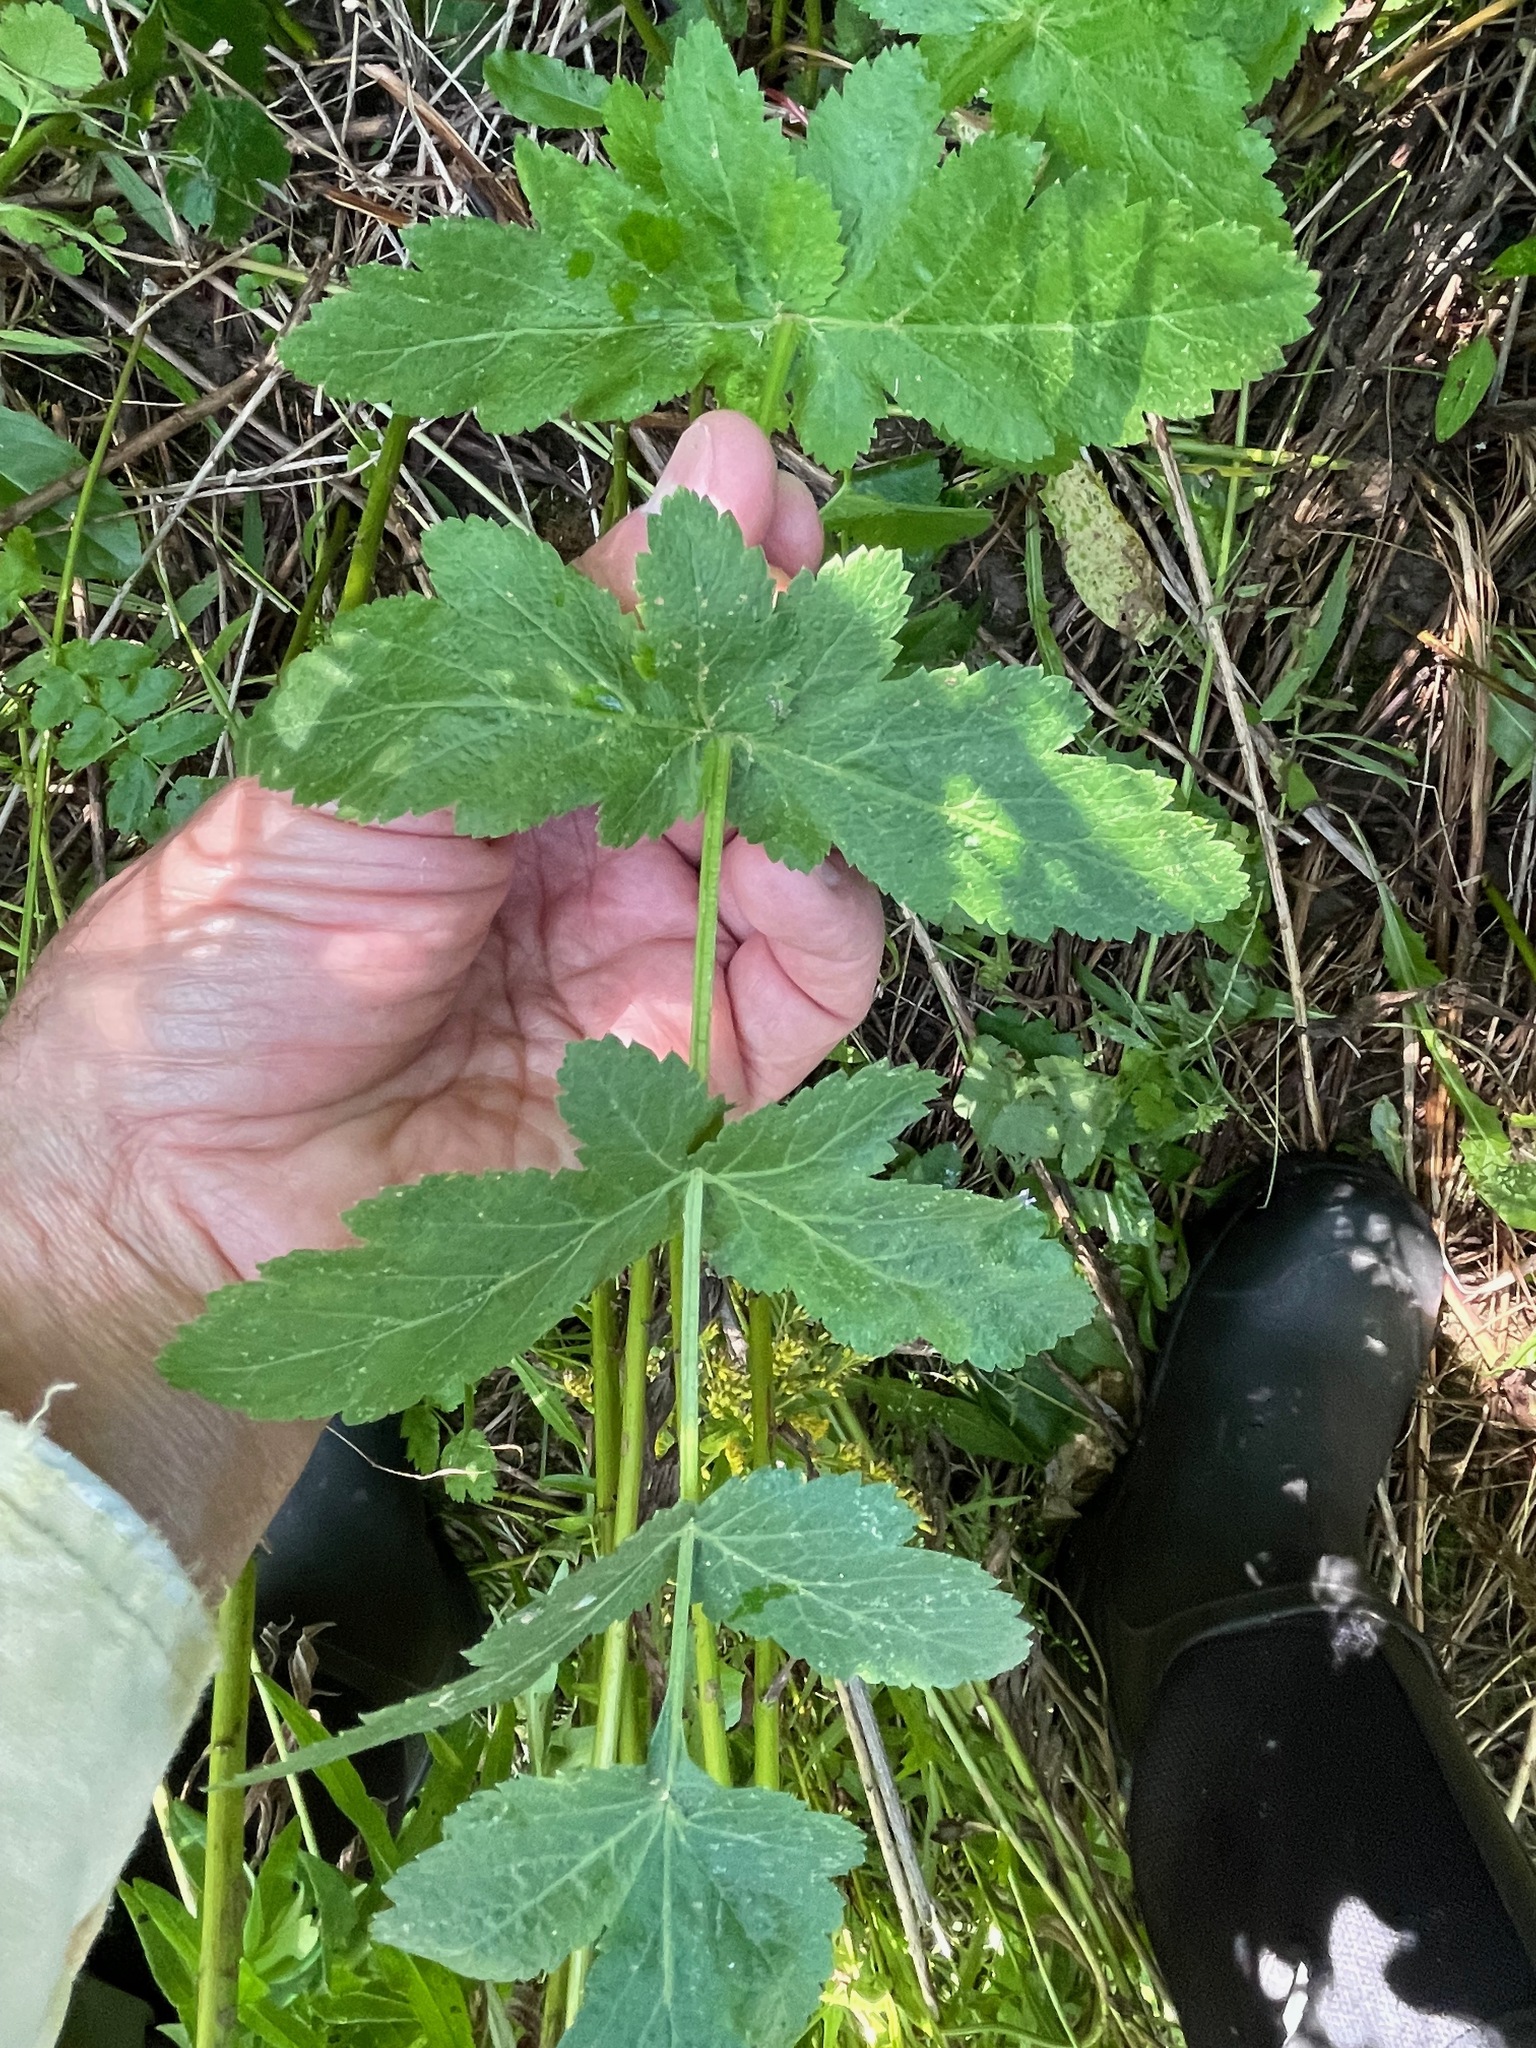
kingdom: Plantae
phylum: Tracheophyta
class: Magnoliopsida
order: Apiales
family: Apiaceae
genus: Pastinaca
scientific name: Pastinaca sativa
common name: Wild parsnip
